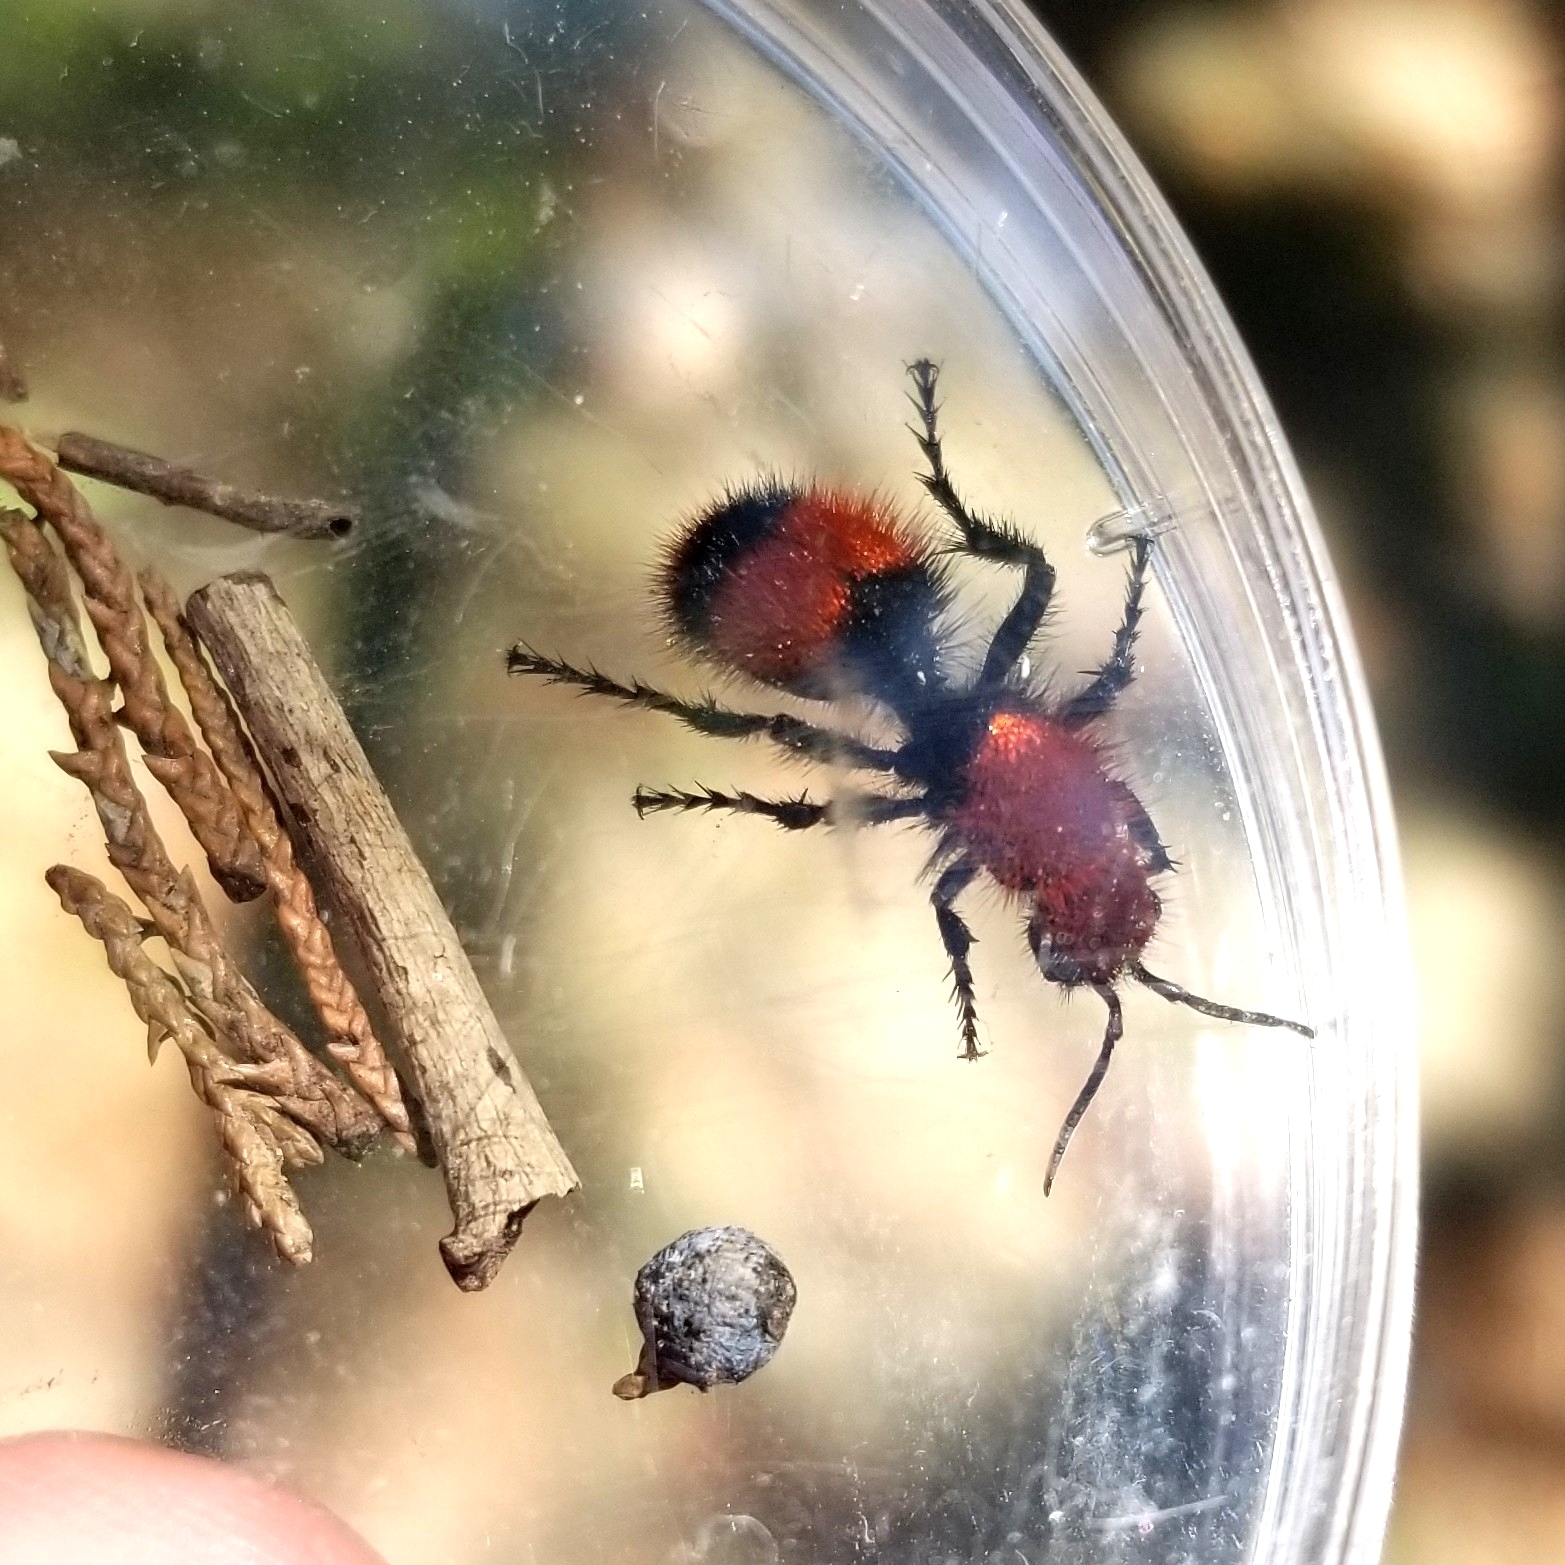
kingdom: Animalia
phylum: Arthropoda
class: Insecta
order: Hymenoptera
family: Mutillidae
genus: Dasymutilla
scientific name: Dasymutilla occidentalis
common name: Common eastern velvet ant
